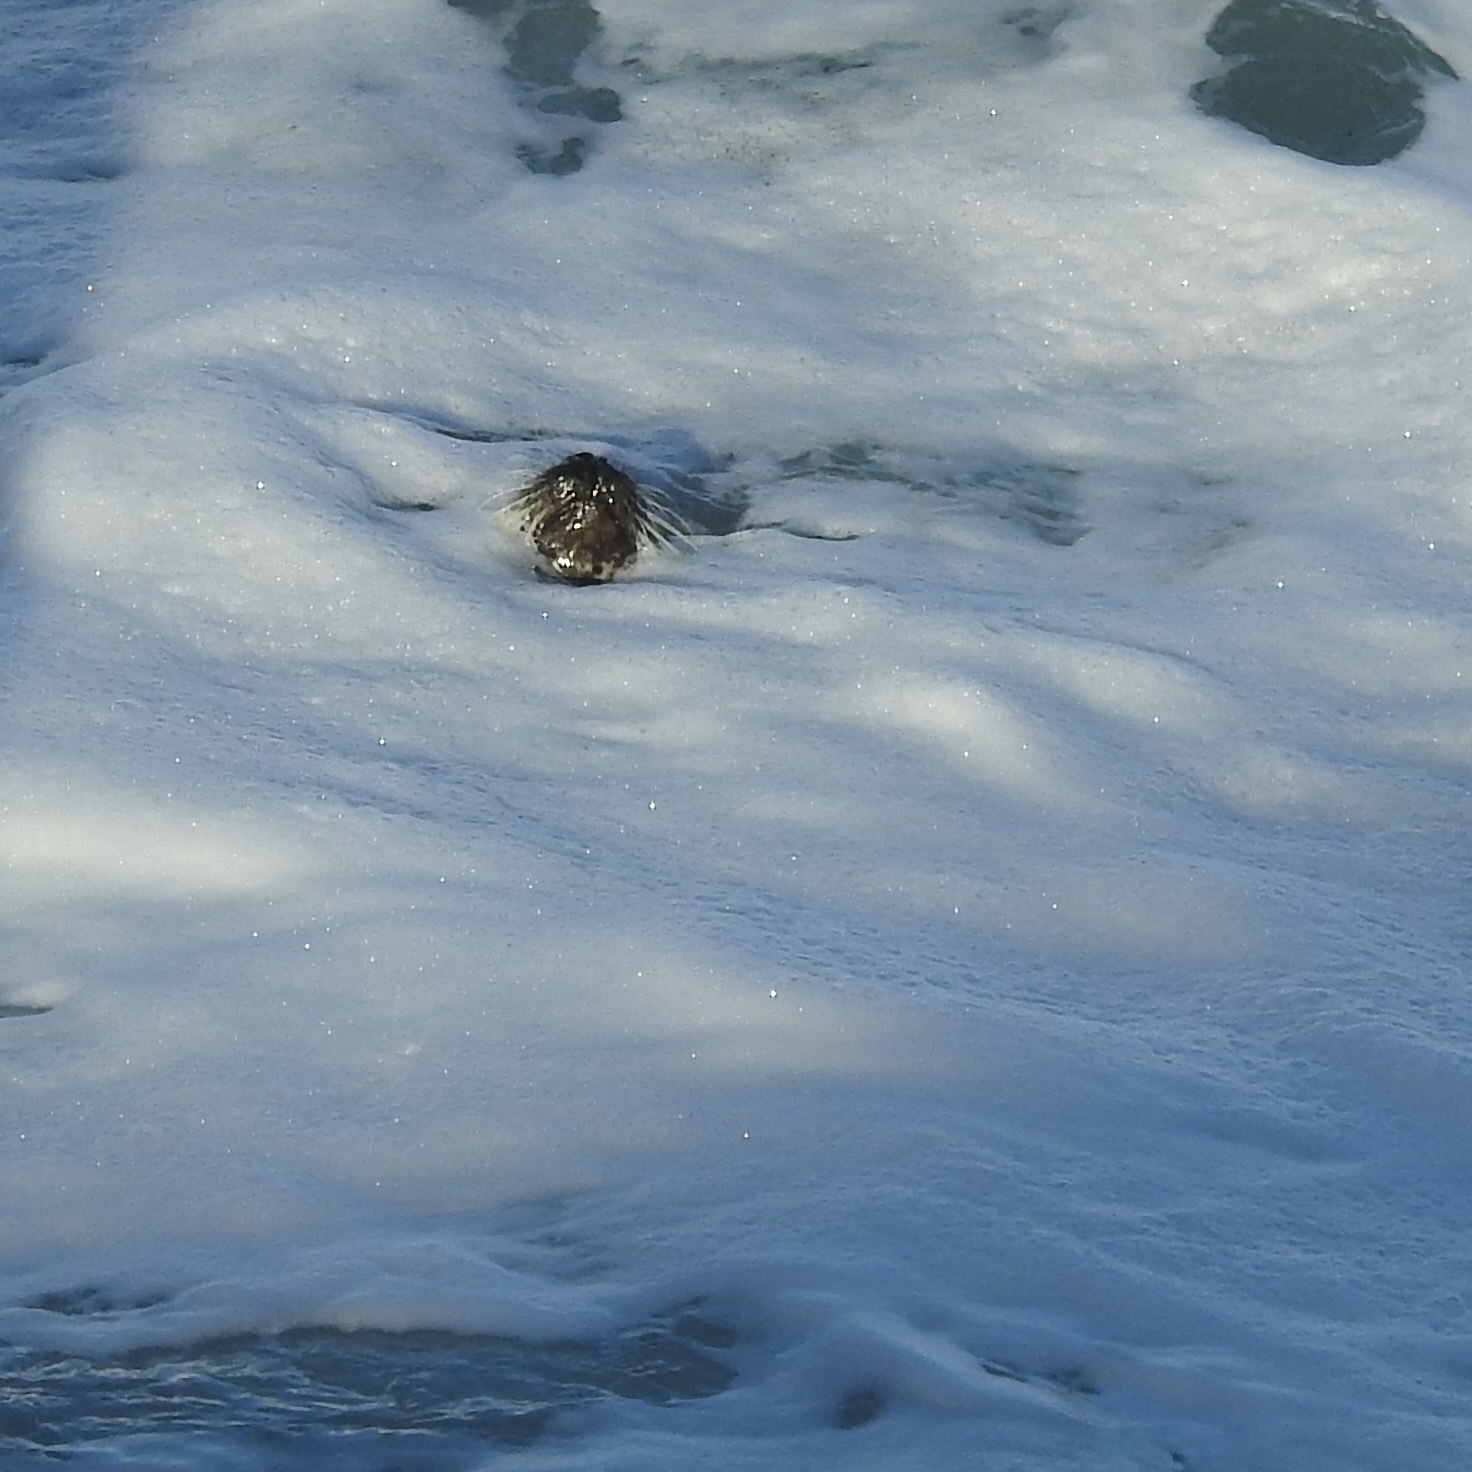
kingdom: Animalia
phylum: Chordata
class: Mammalia
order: Carnivora
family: Phocidae
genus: Phoca
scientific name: Phoca vitulina
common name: Harbor seal
